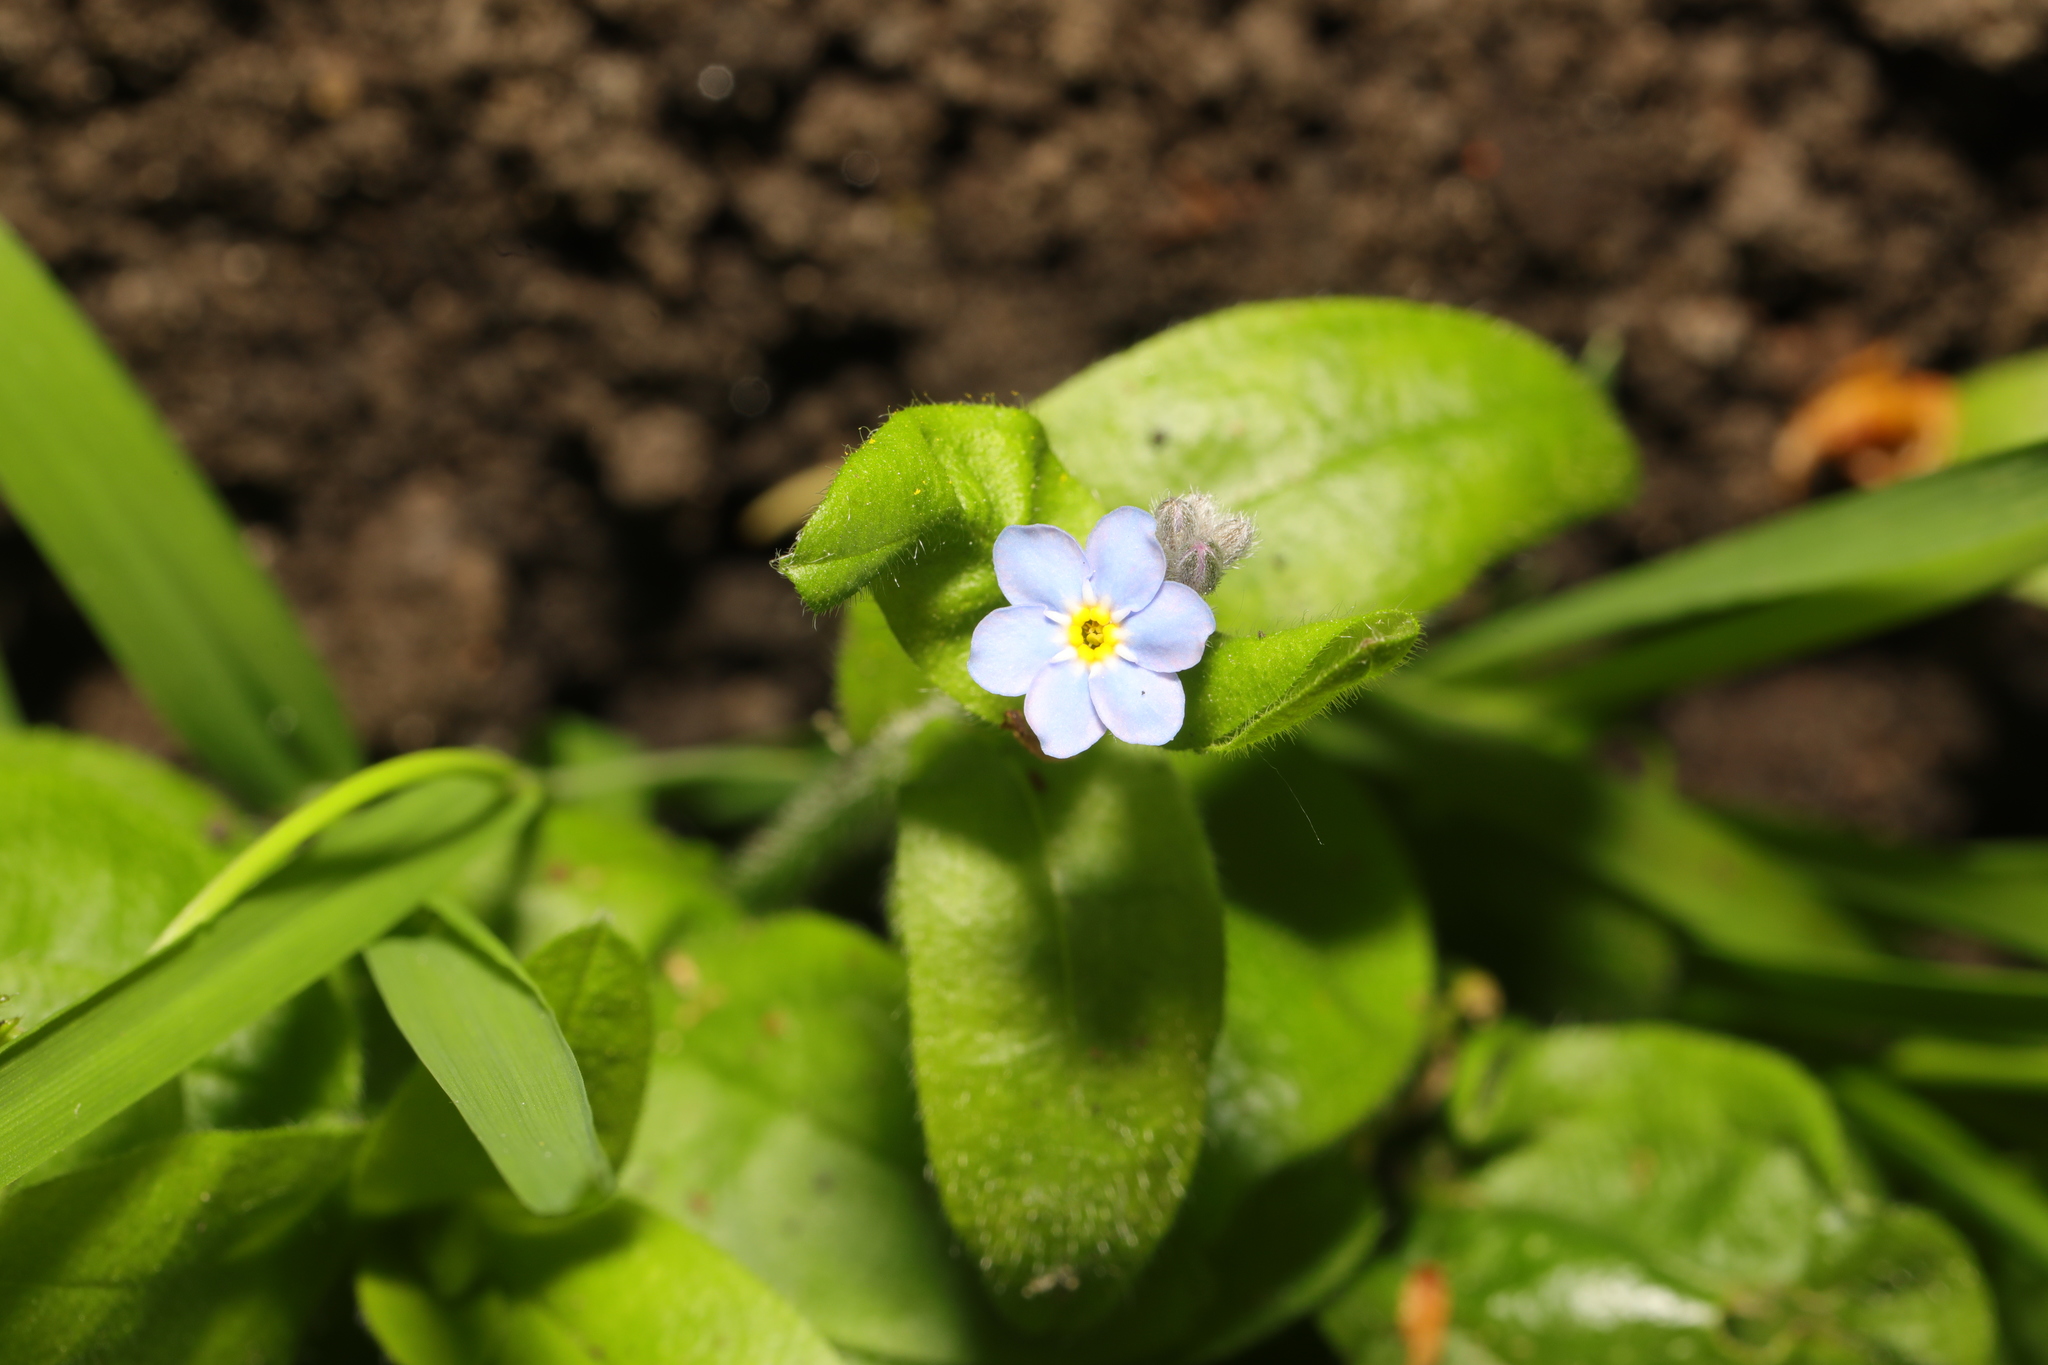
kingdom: Plantae
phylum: Tracheophyta
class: Magnoliopsida
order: Boraginales
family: Boraginaceae
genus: Myosotis
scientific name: Myosotis sylvatica
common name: Wood forget-me-not
